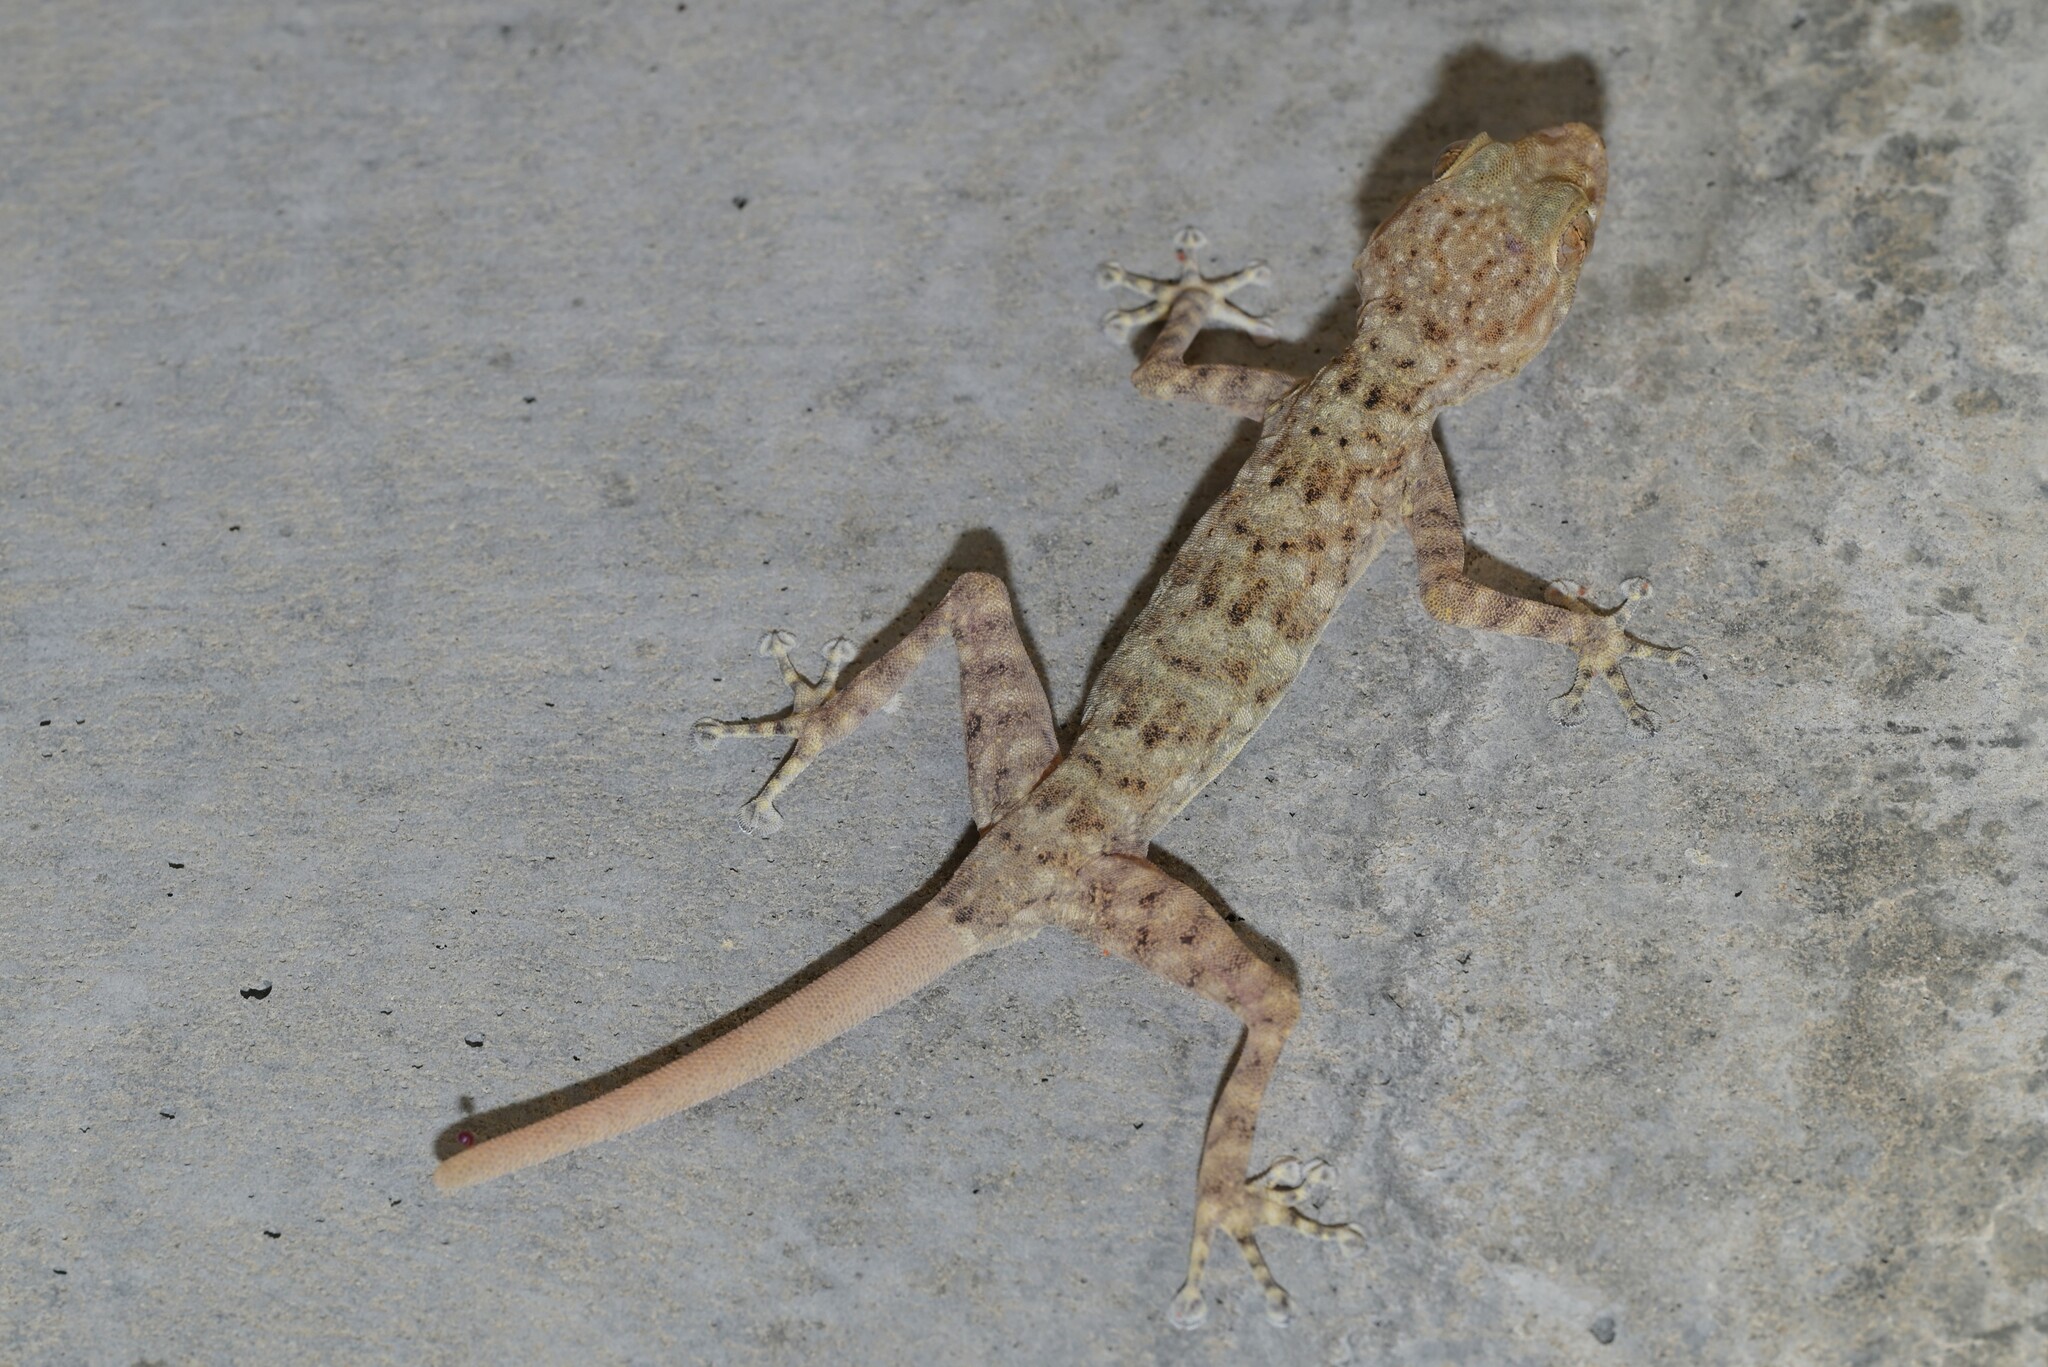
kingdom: Animalia
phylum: Chordata
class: Squamata
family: Phyllodactylidae
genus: Ptyodactylus
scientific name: Ptyodactylus orlovi
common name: Orlov's fan-footed gecko
